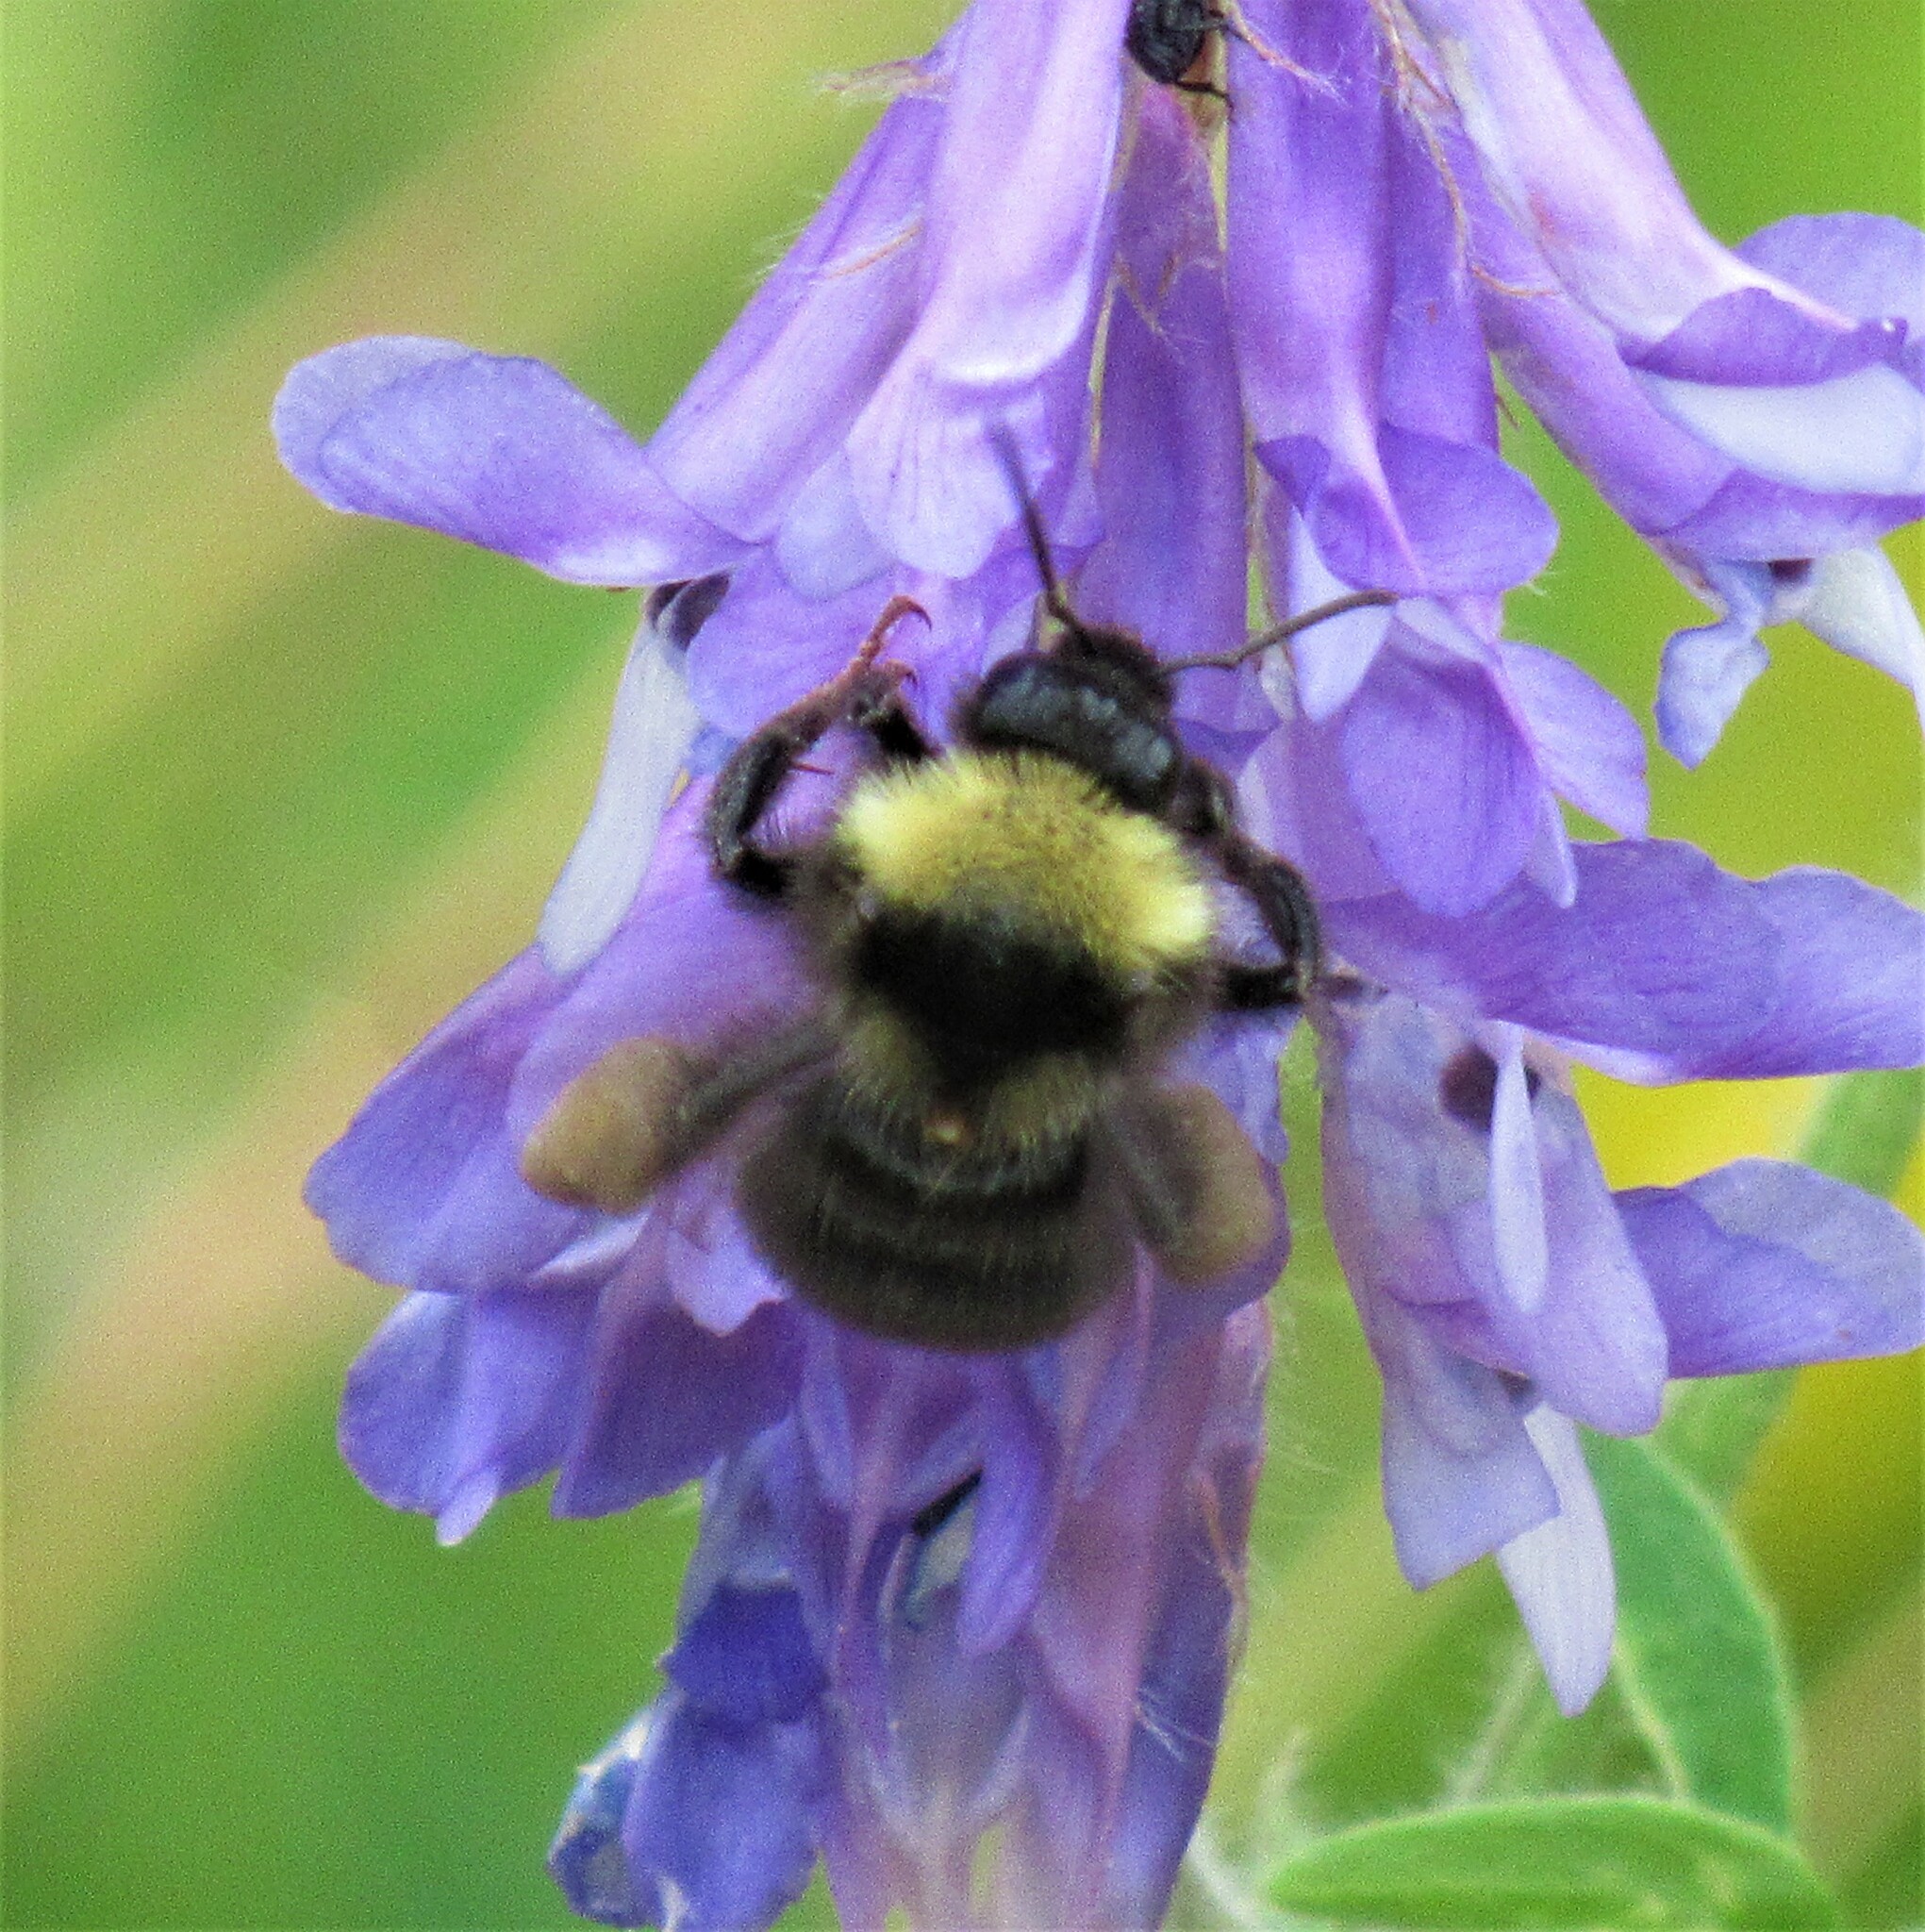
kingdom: Animalia
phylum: Arthropoda
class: Insecta
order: Hymenoptera
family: Apidae
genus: Bombus
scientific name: Bombus californicus
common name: California bumble bee
